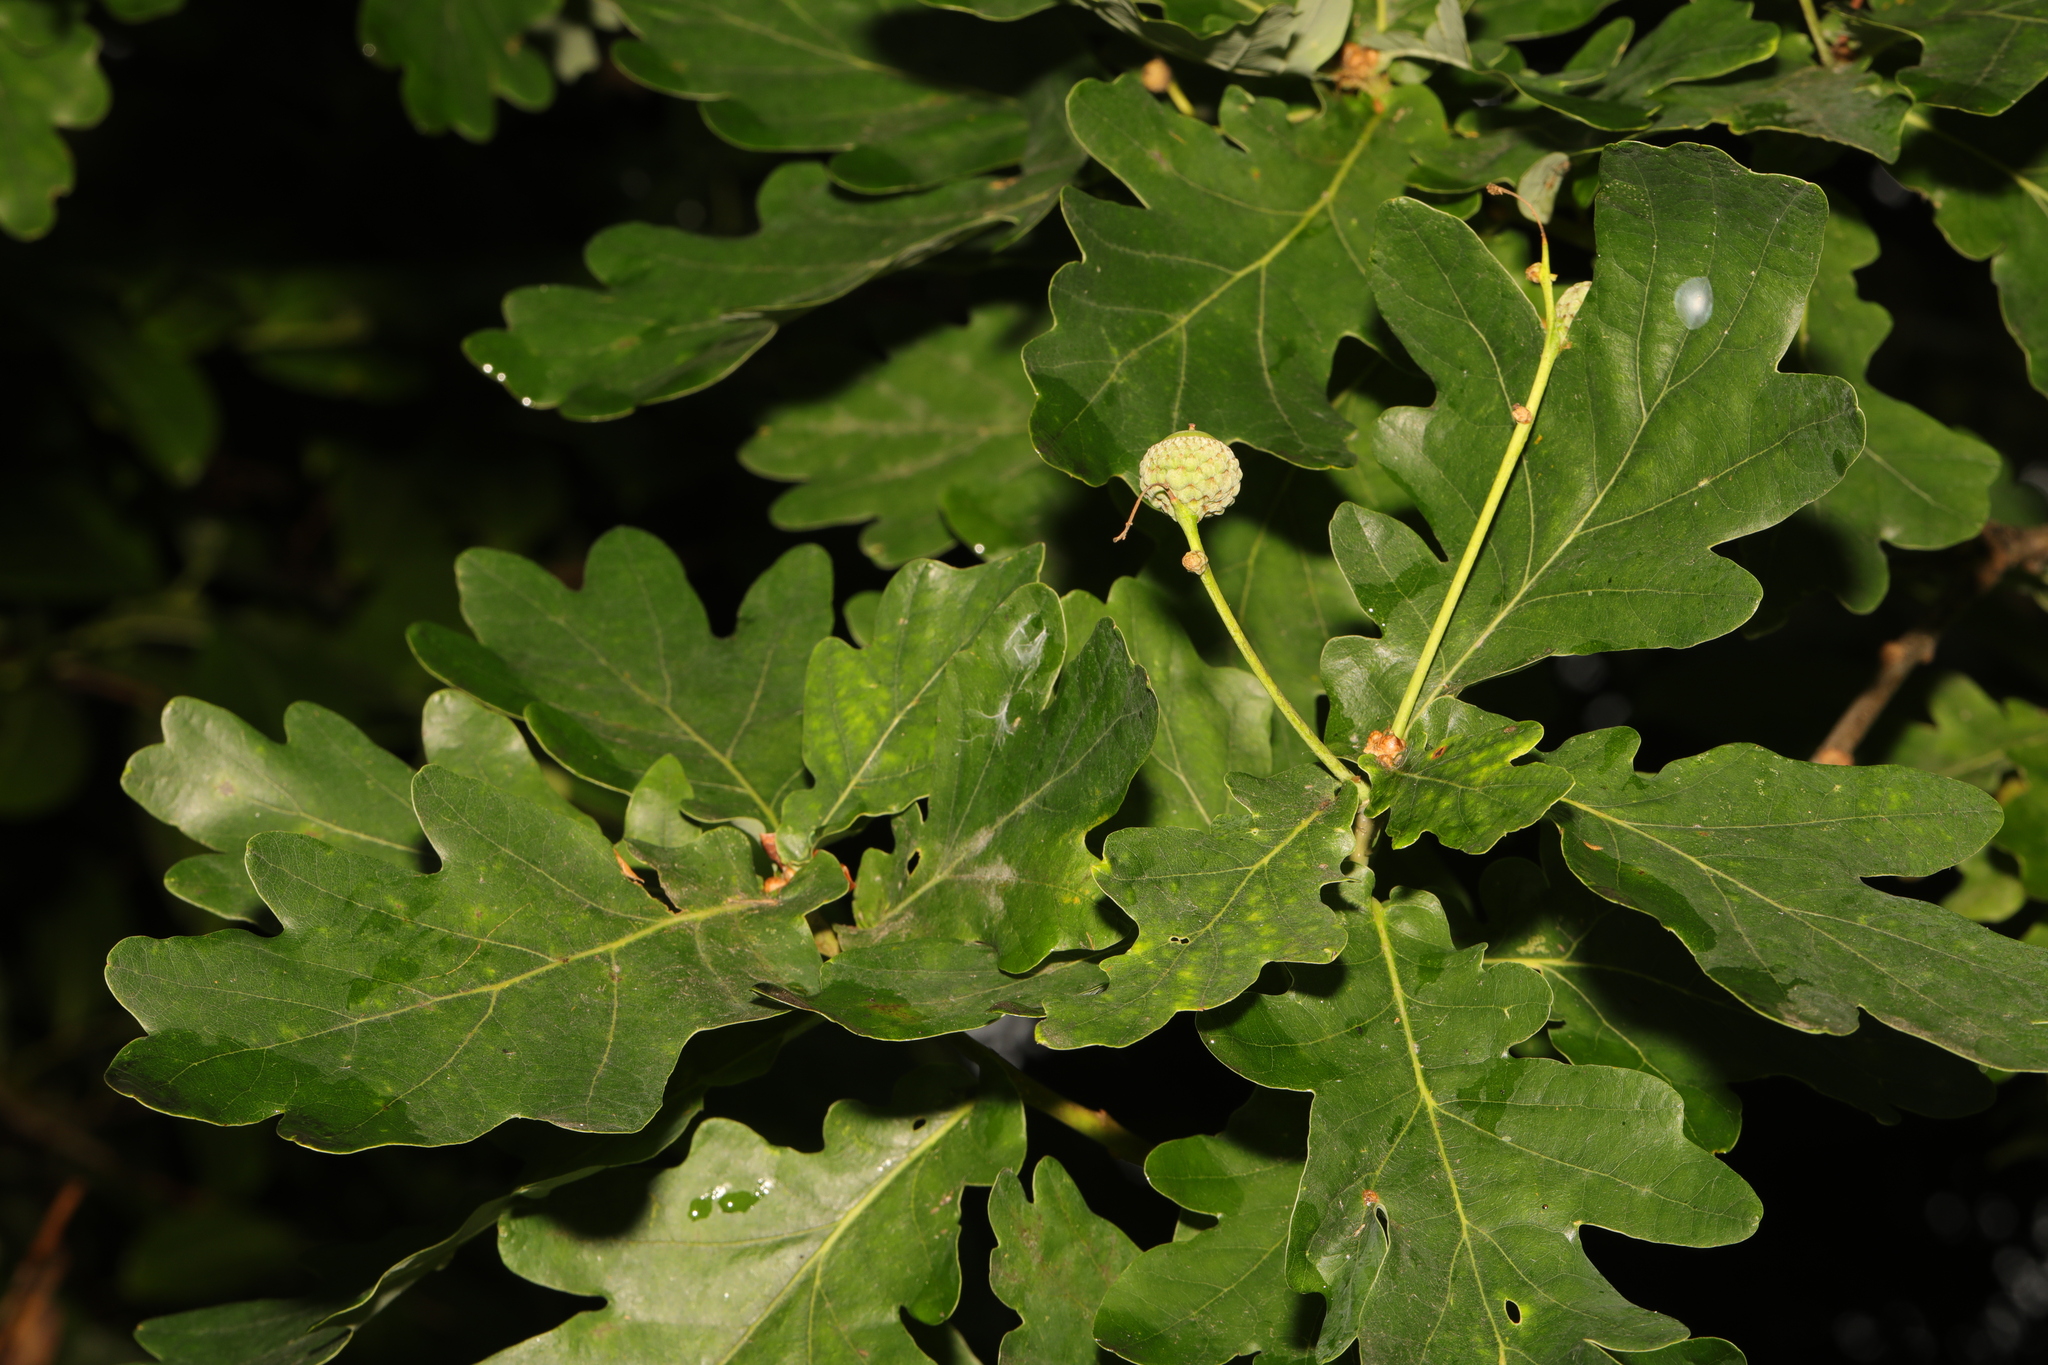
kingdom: Plantae
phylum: Tracheophyta
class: Magnoliopsida
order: Fagales
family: Fagaceae
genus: Quercus
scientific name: Quercus robur
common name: Pedunculate oak
